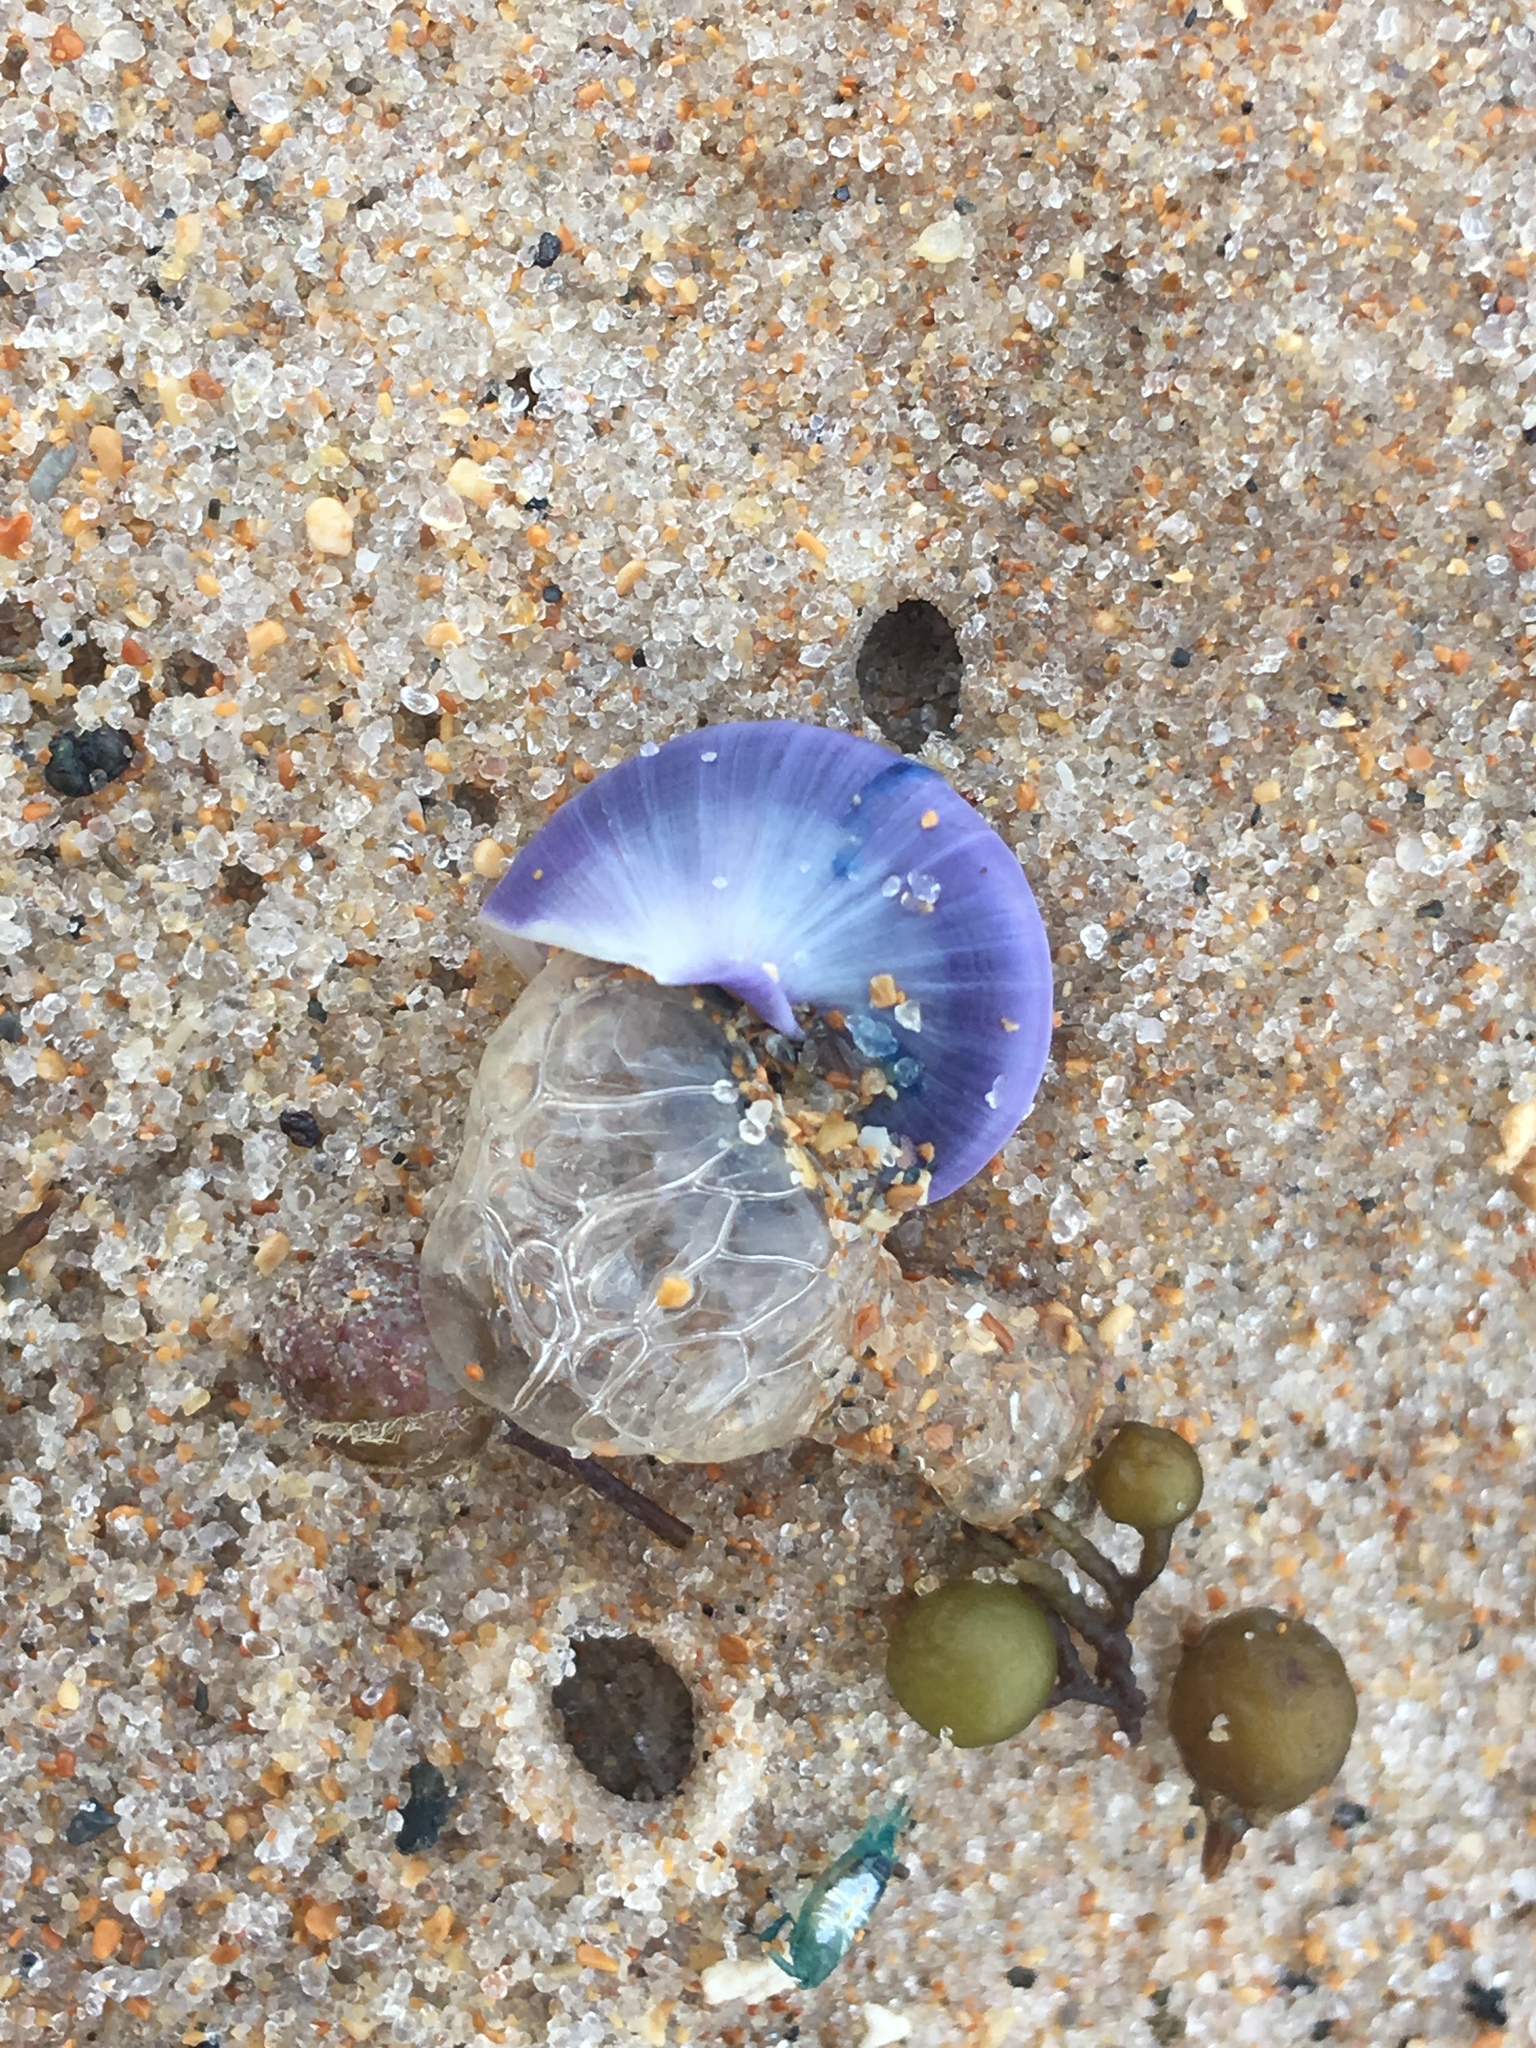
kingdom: Animalia
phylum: Mollusca
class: Gastropoda
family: Epitoniidae
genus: Janthina
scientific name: Janthina janthina
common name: Common janthina
